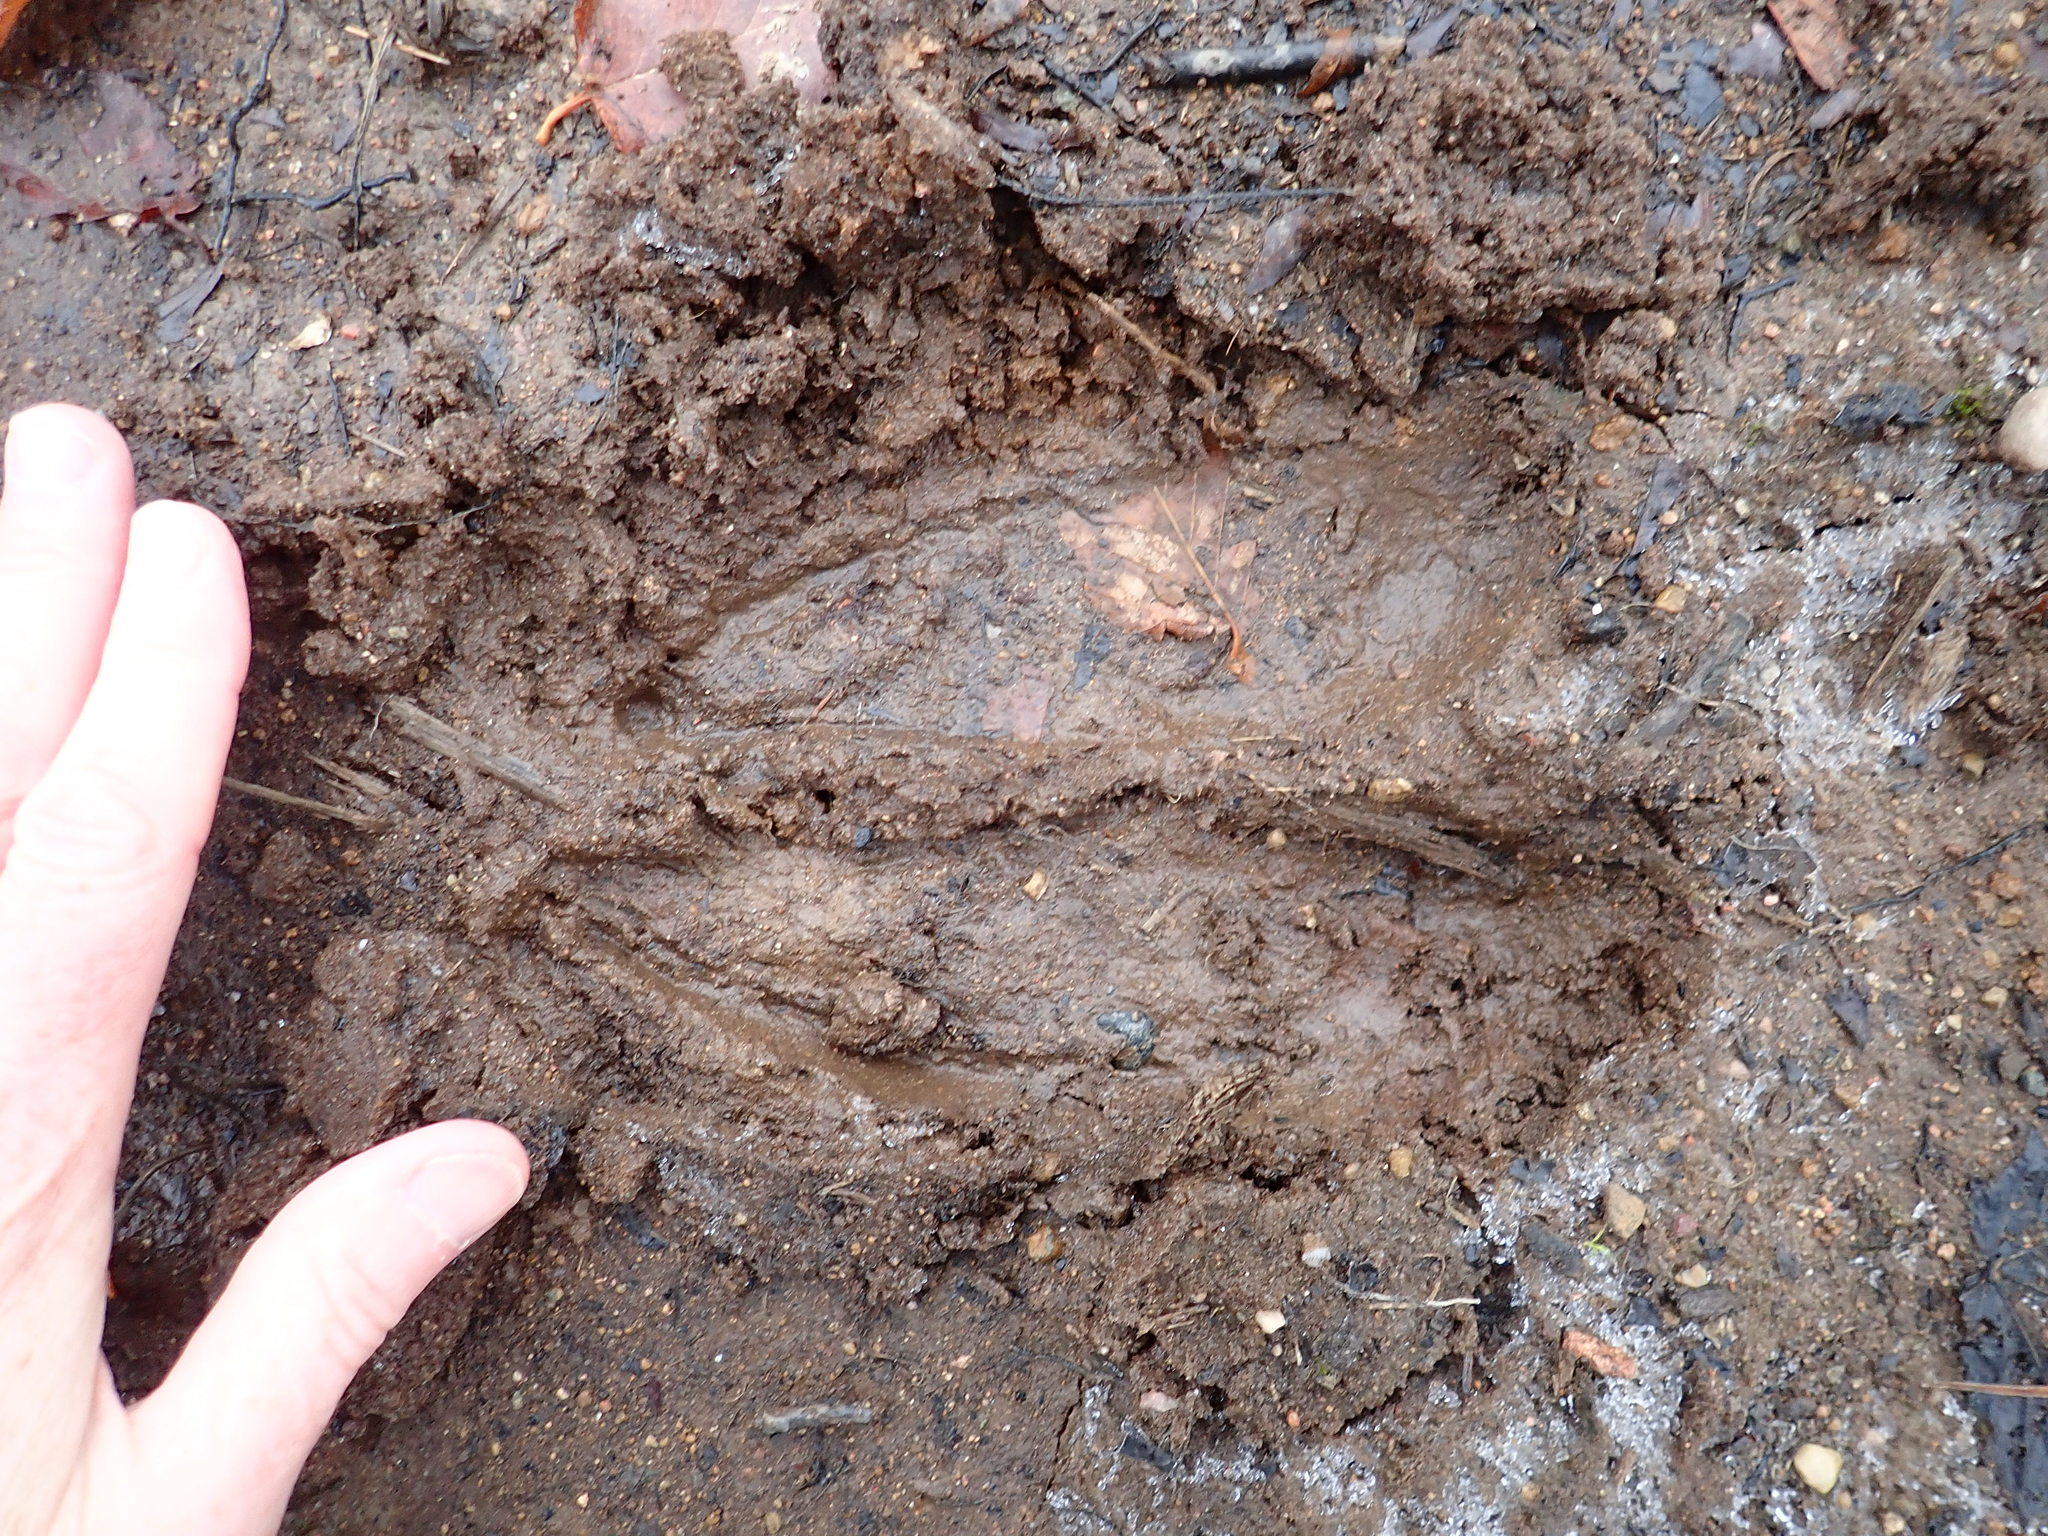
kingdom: Animalia
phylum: Chordata
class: Mammalia
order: Artiodactyla
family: Cervidae
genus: Alces
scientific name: Alces alces
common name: Moose
